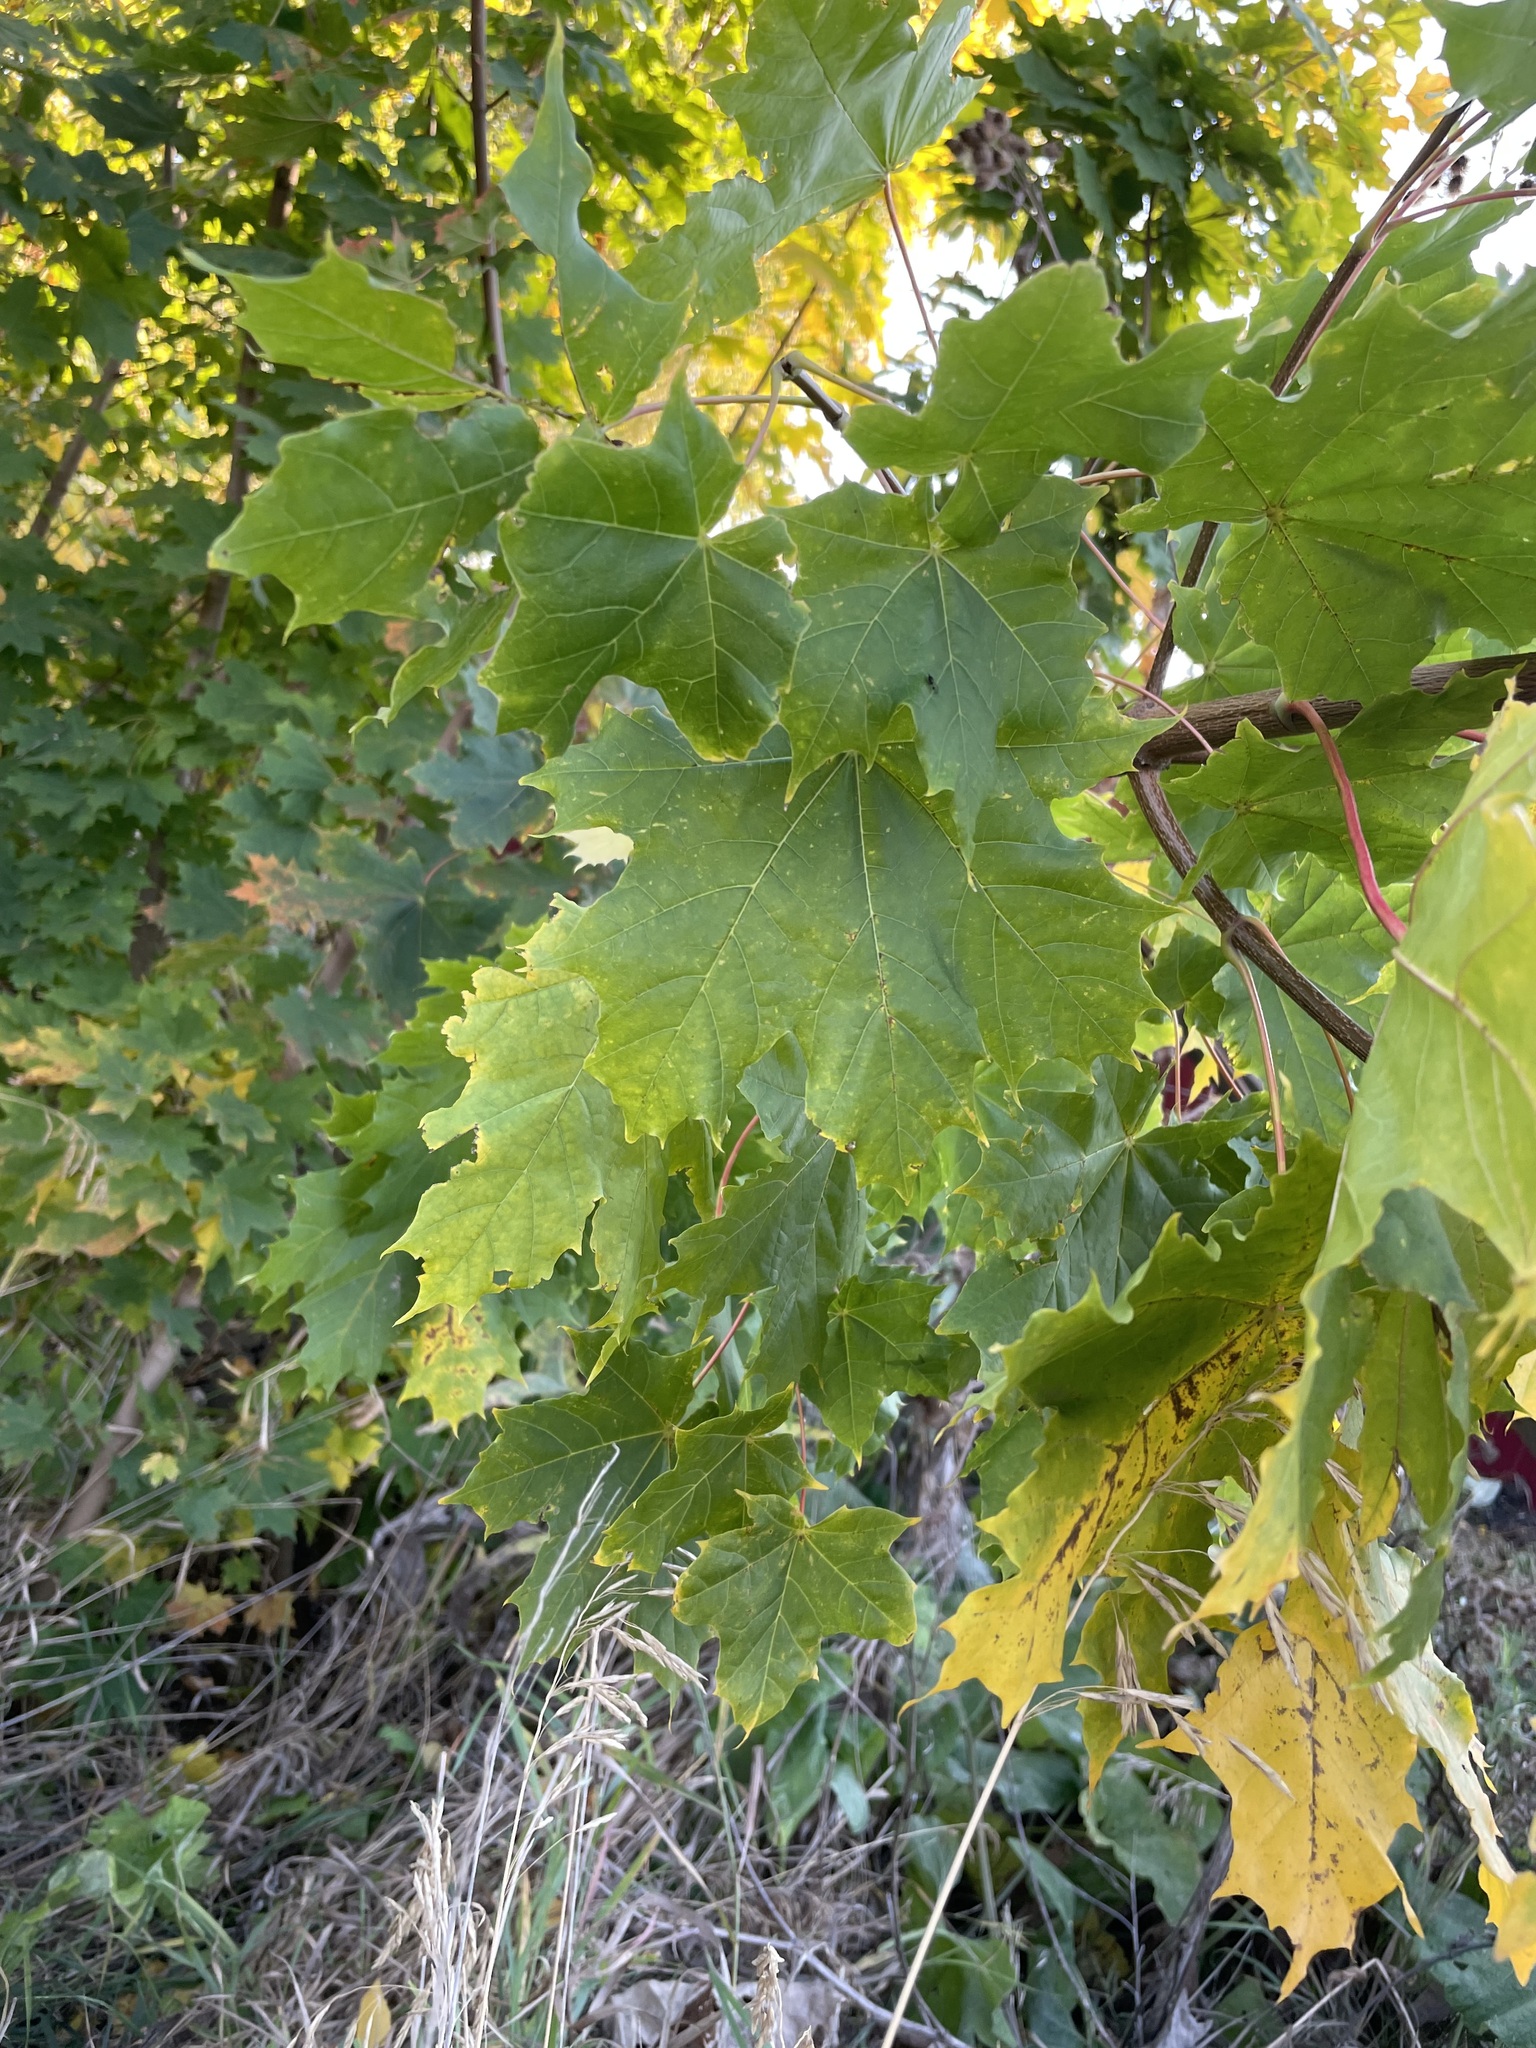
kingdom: Plantae
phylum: Tracheophyta
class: Magnoliopsida
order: Sapindales
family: Sapindaceae
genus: Acer
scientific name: Acer platanoides
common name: Norway maple
